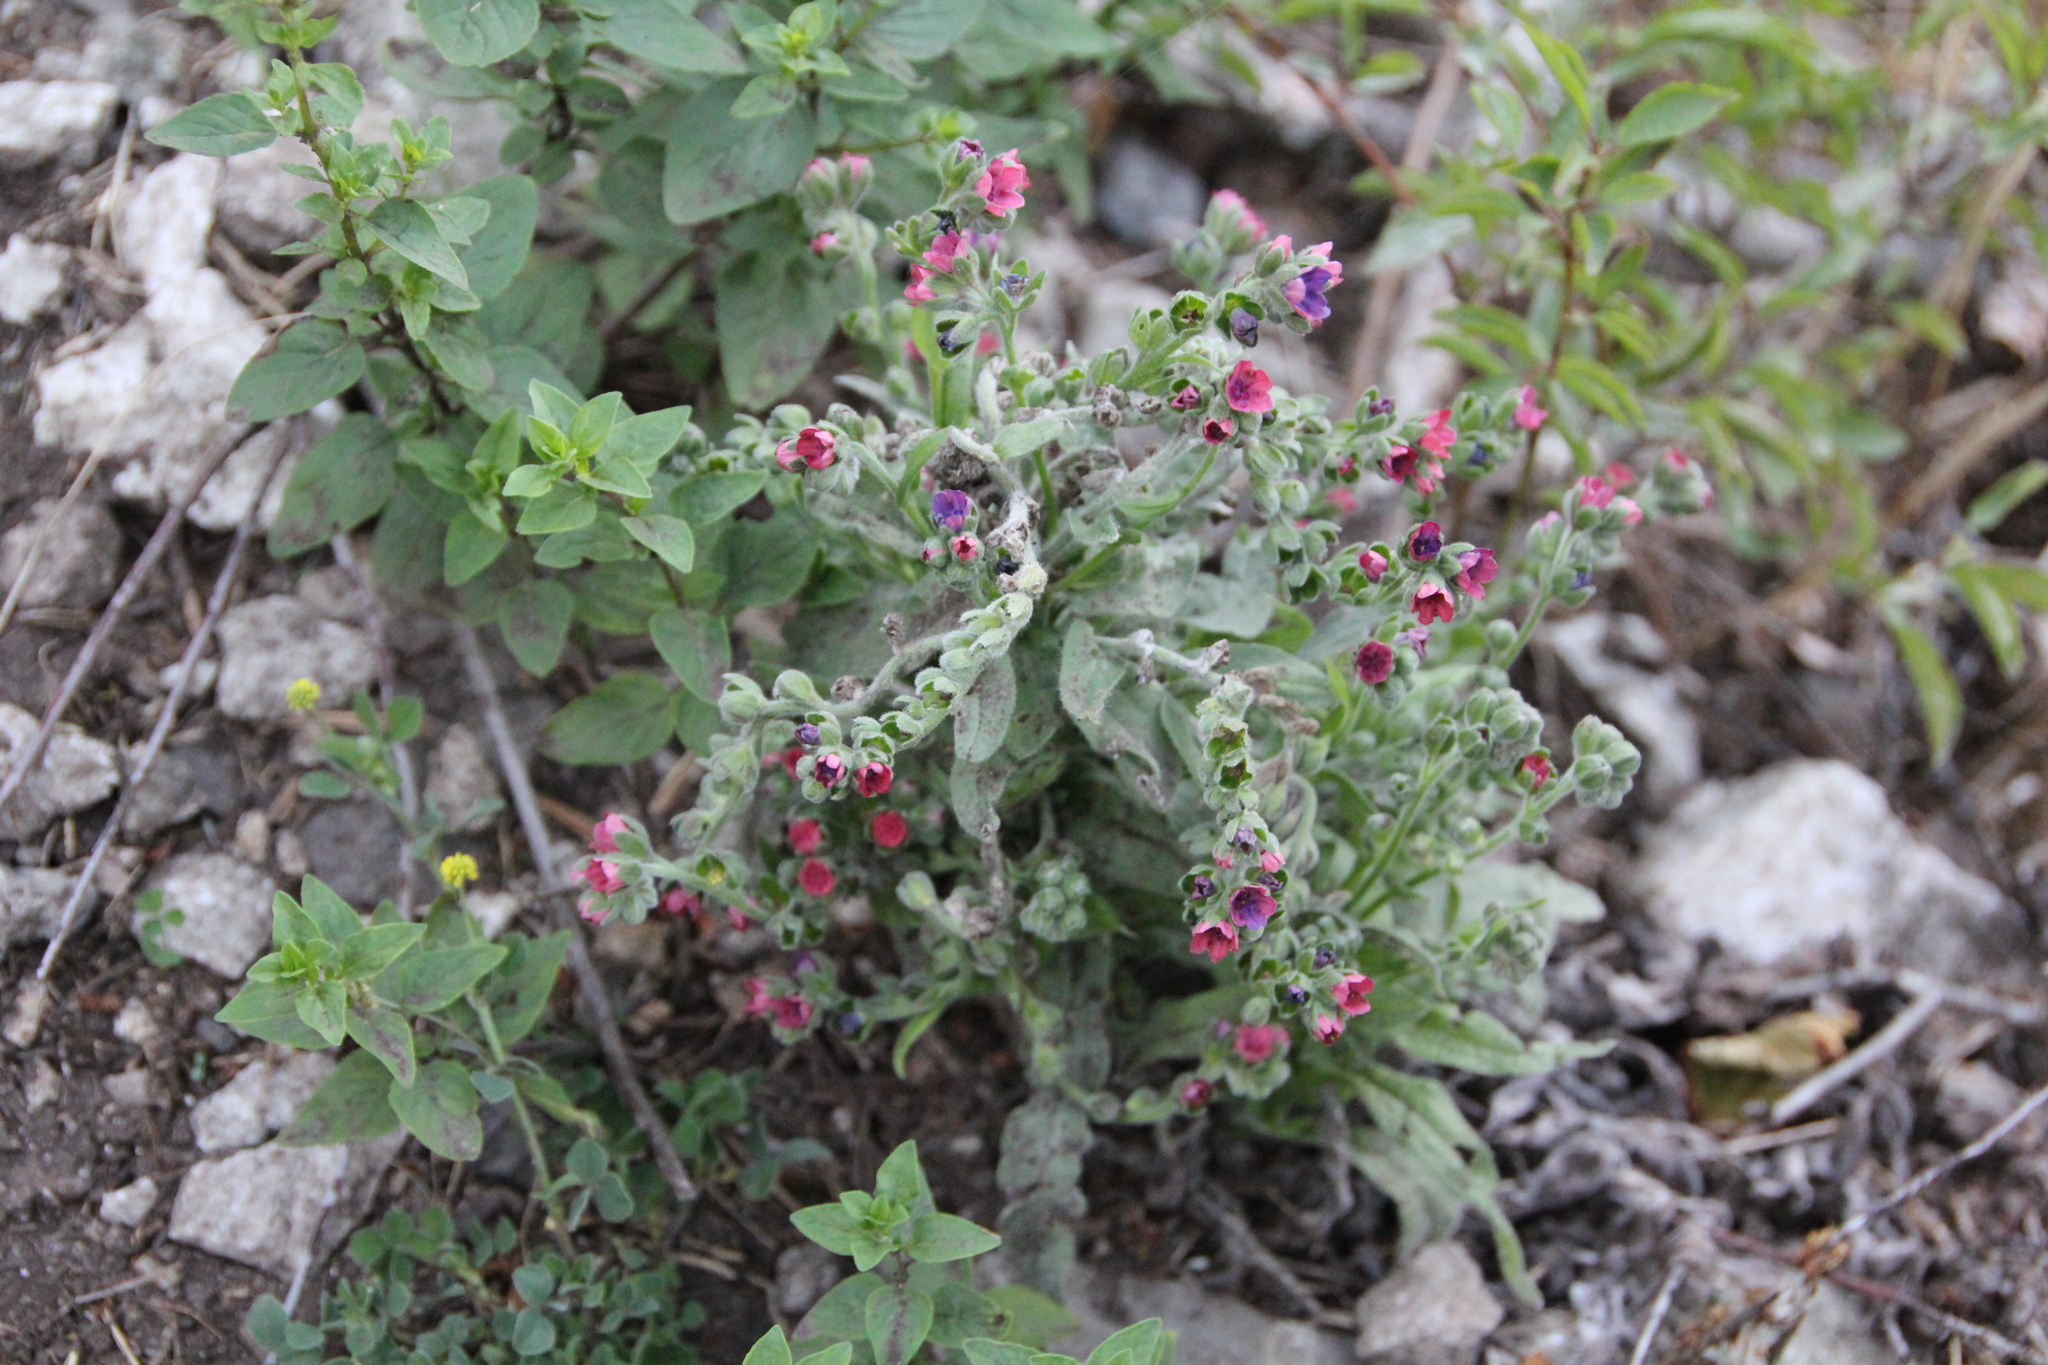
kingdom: Plantae
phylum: Tracheophyta
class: Magnoliopsida
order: Boraginales
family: Boraginaceae
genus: Cynoglossum
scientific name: Cynoglossum officinale
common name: Hound's-tongue
